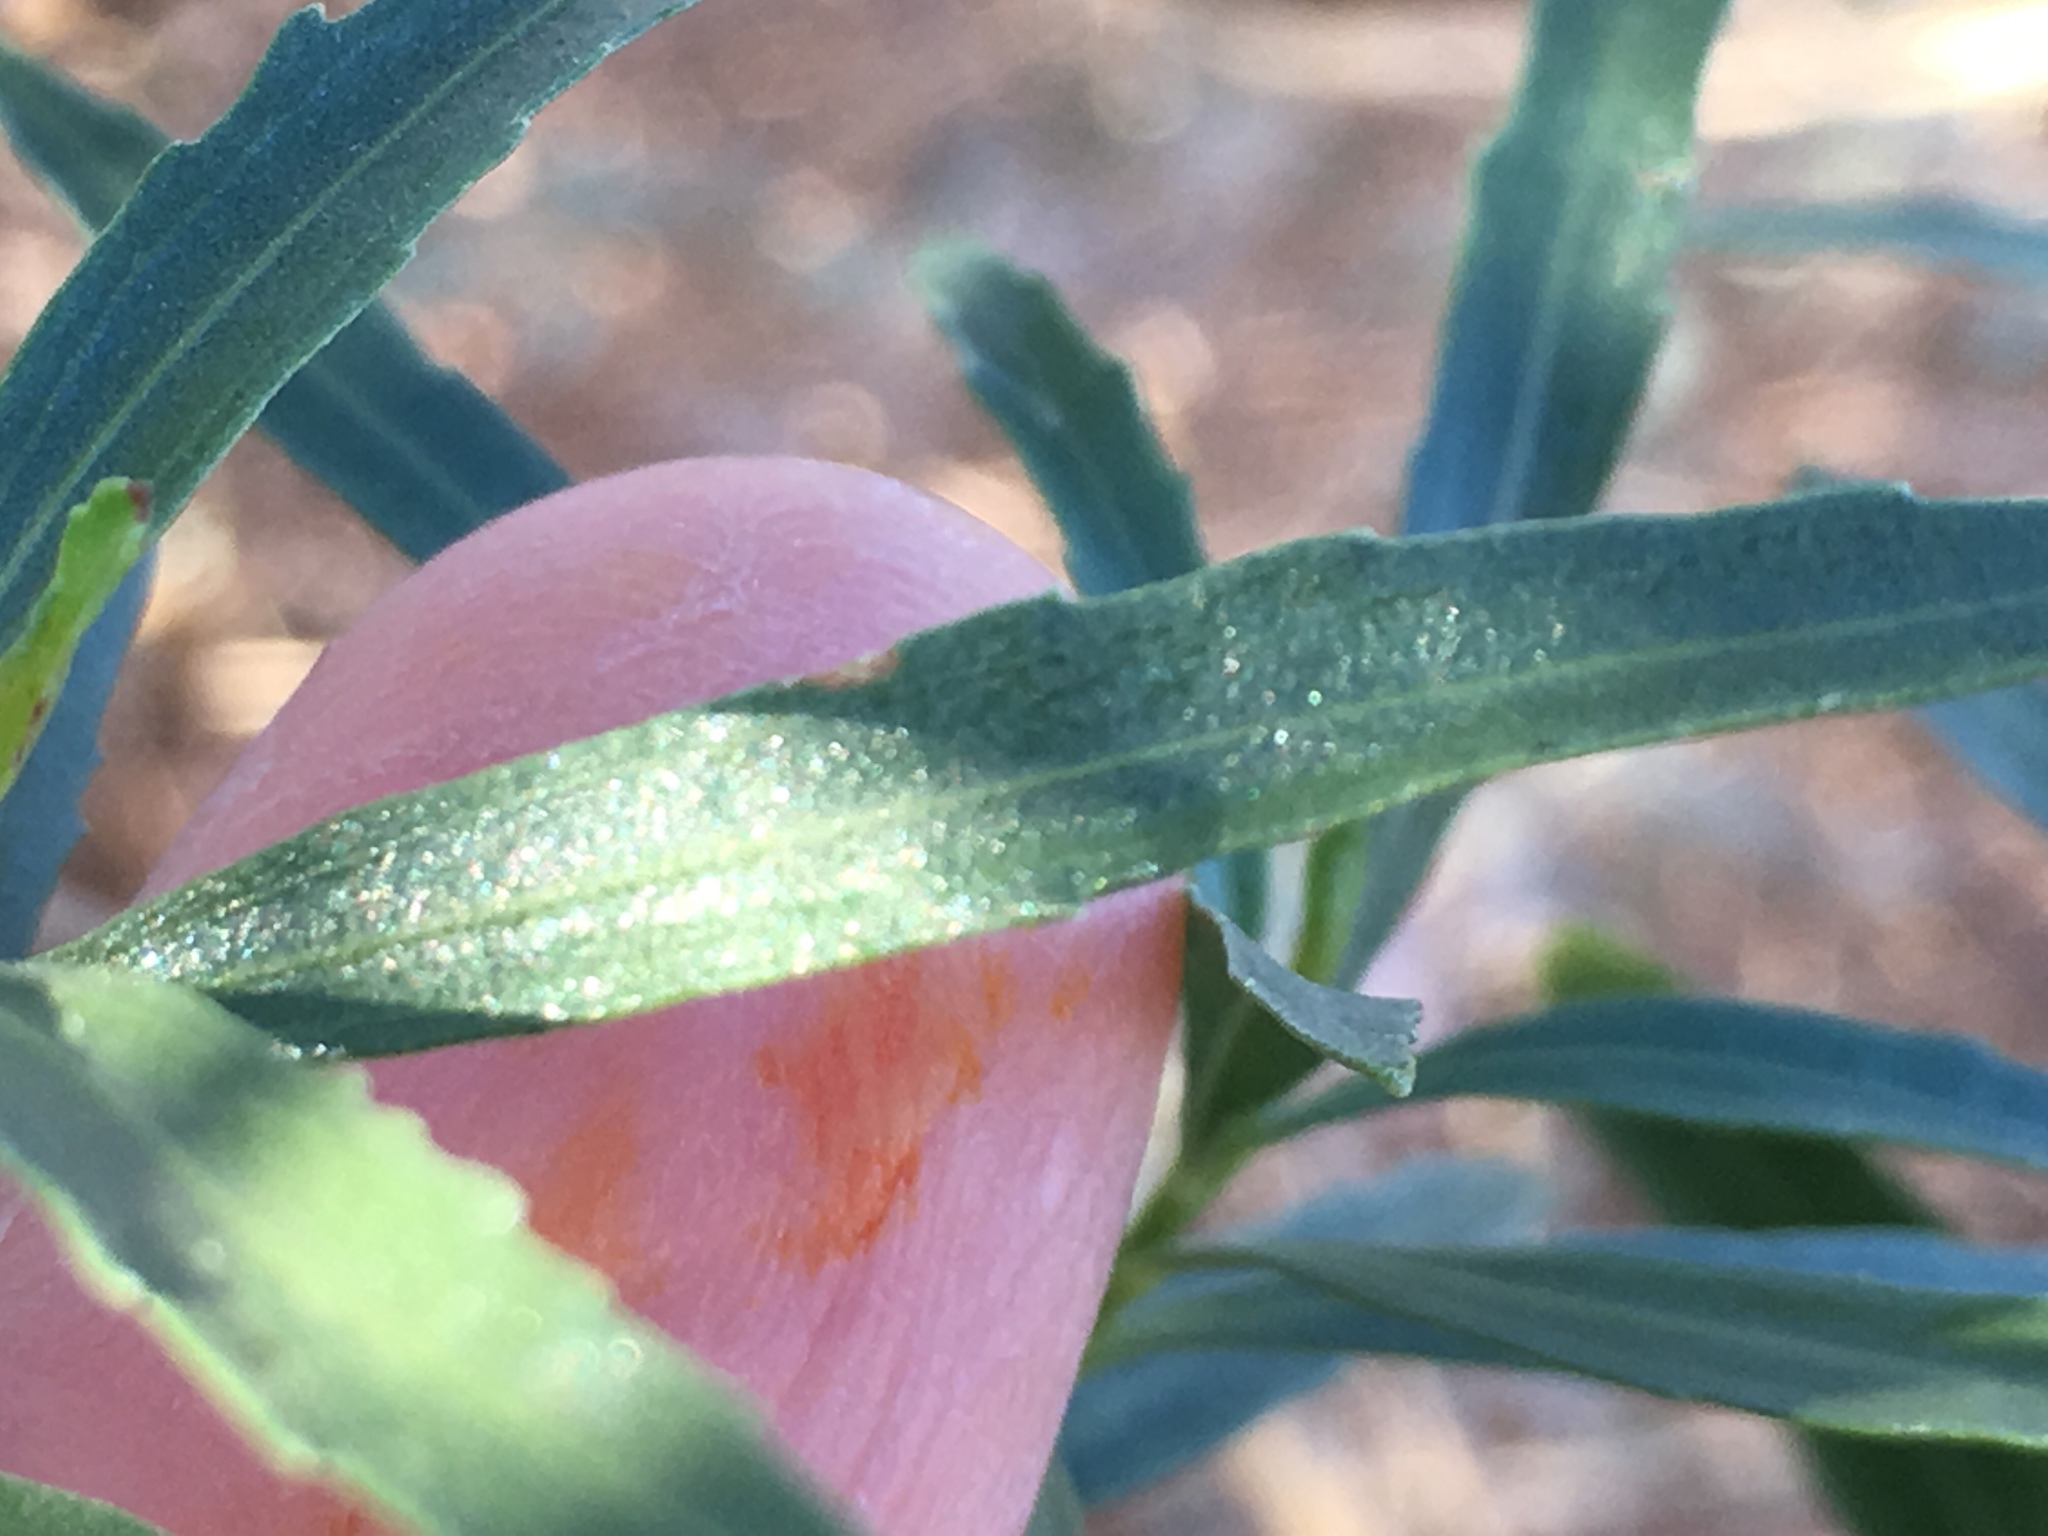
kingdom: Plantae
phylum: Tracheophyta
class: Magnoliopsida
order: Asterales
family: Asteraceae
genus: Baccharis
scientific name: Baccharis salicifolia
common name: Sticky baccharis
